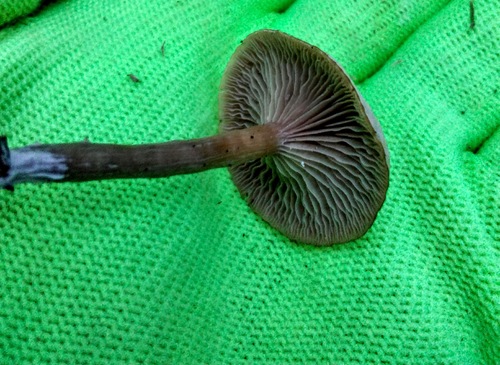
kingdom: Fungi
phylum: Basidiomycota
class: Agaricomycetes
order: Agaricales
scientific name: Agaricales
